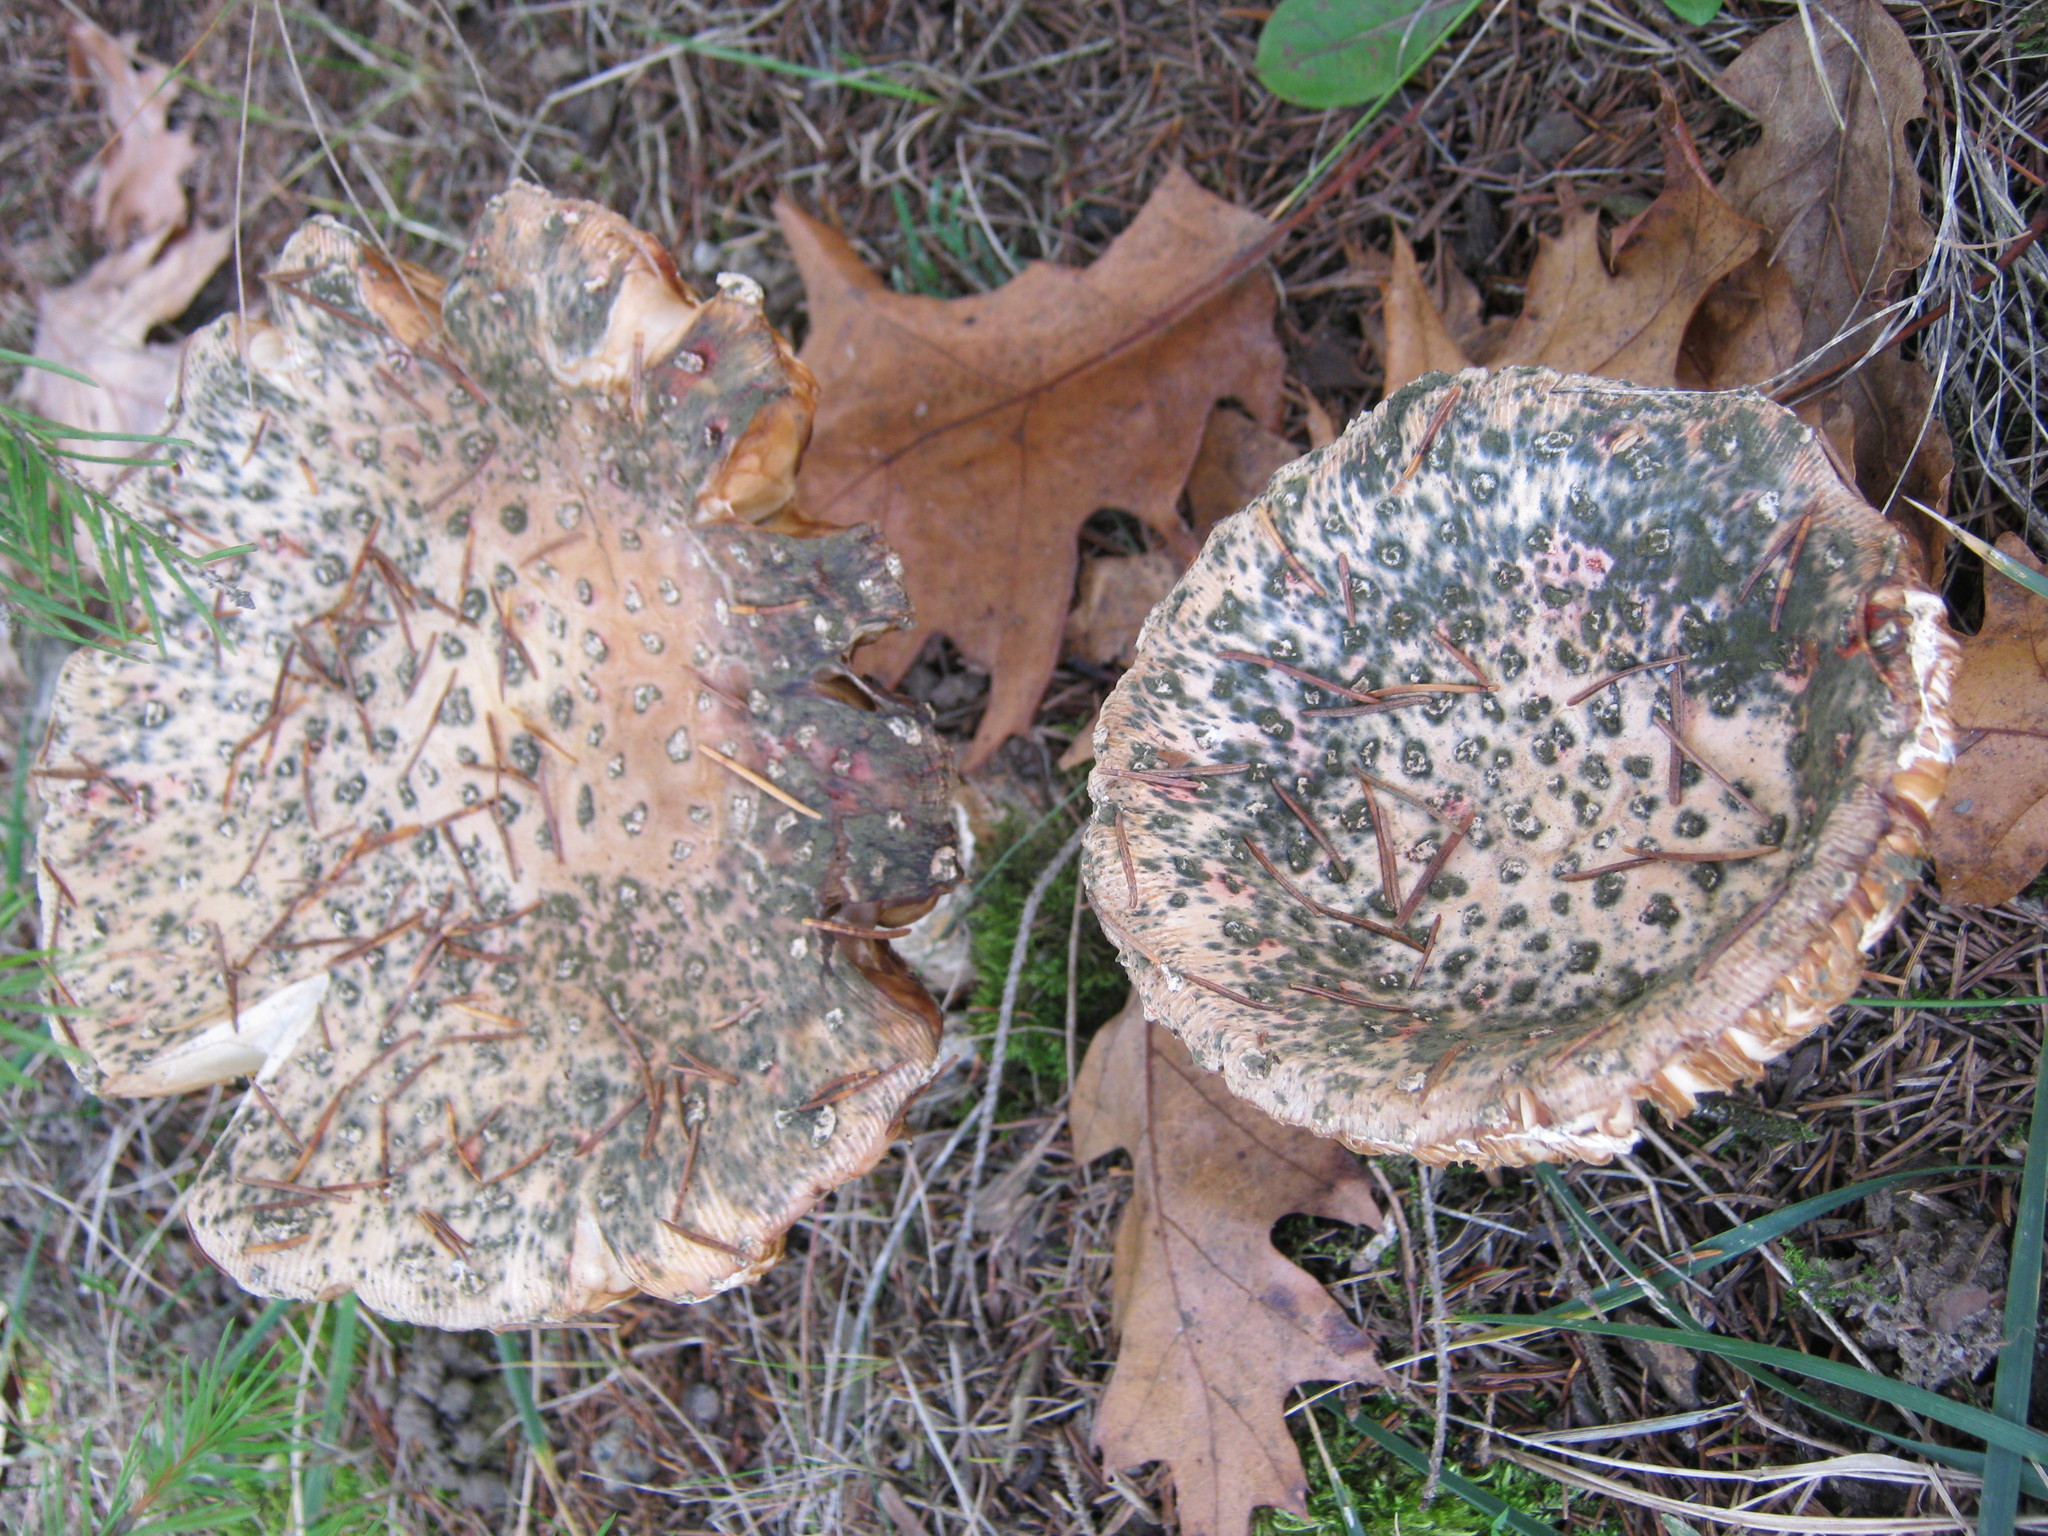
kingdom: Fungi
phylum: Basidiomycota
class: Agaricomycetes
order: Agaricales
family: Amanitaceae
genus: Amanita
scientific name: Amanita muscaria
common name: Fly agaric
